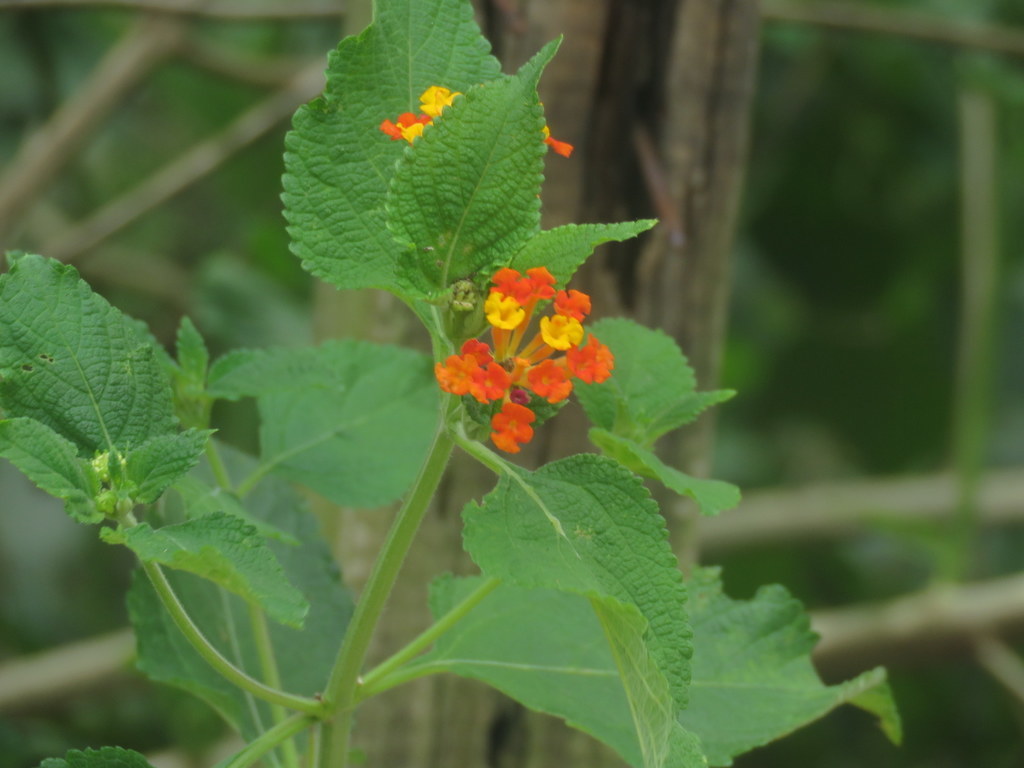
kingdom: Plantae
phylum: Tracheophyta
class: Magnoliopsida
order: Lamiales
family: Verbenaceae
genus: Lantana
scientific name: Lantana camara
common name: Lantana
